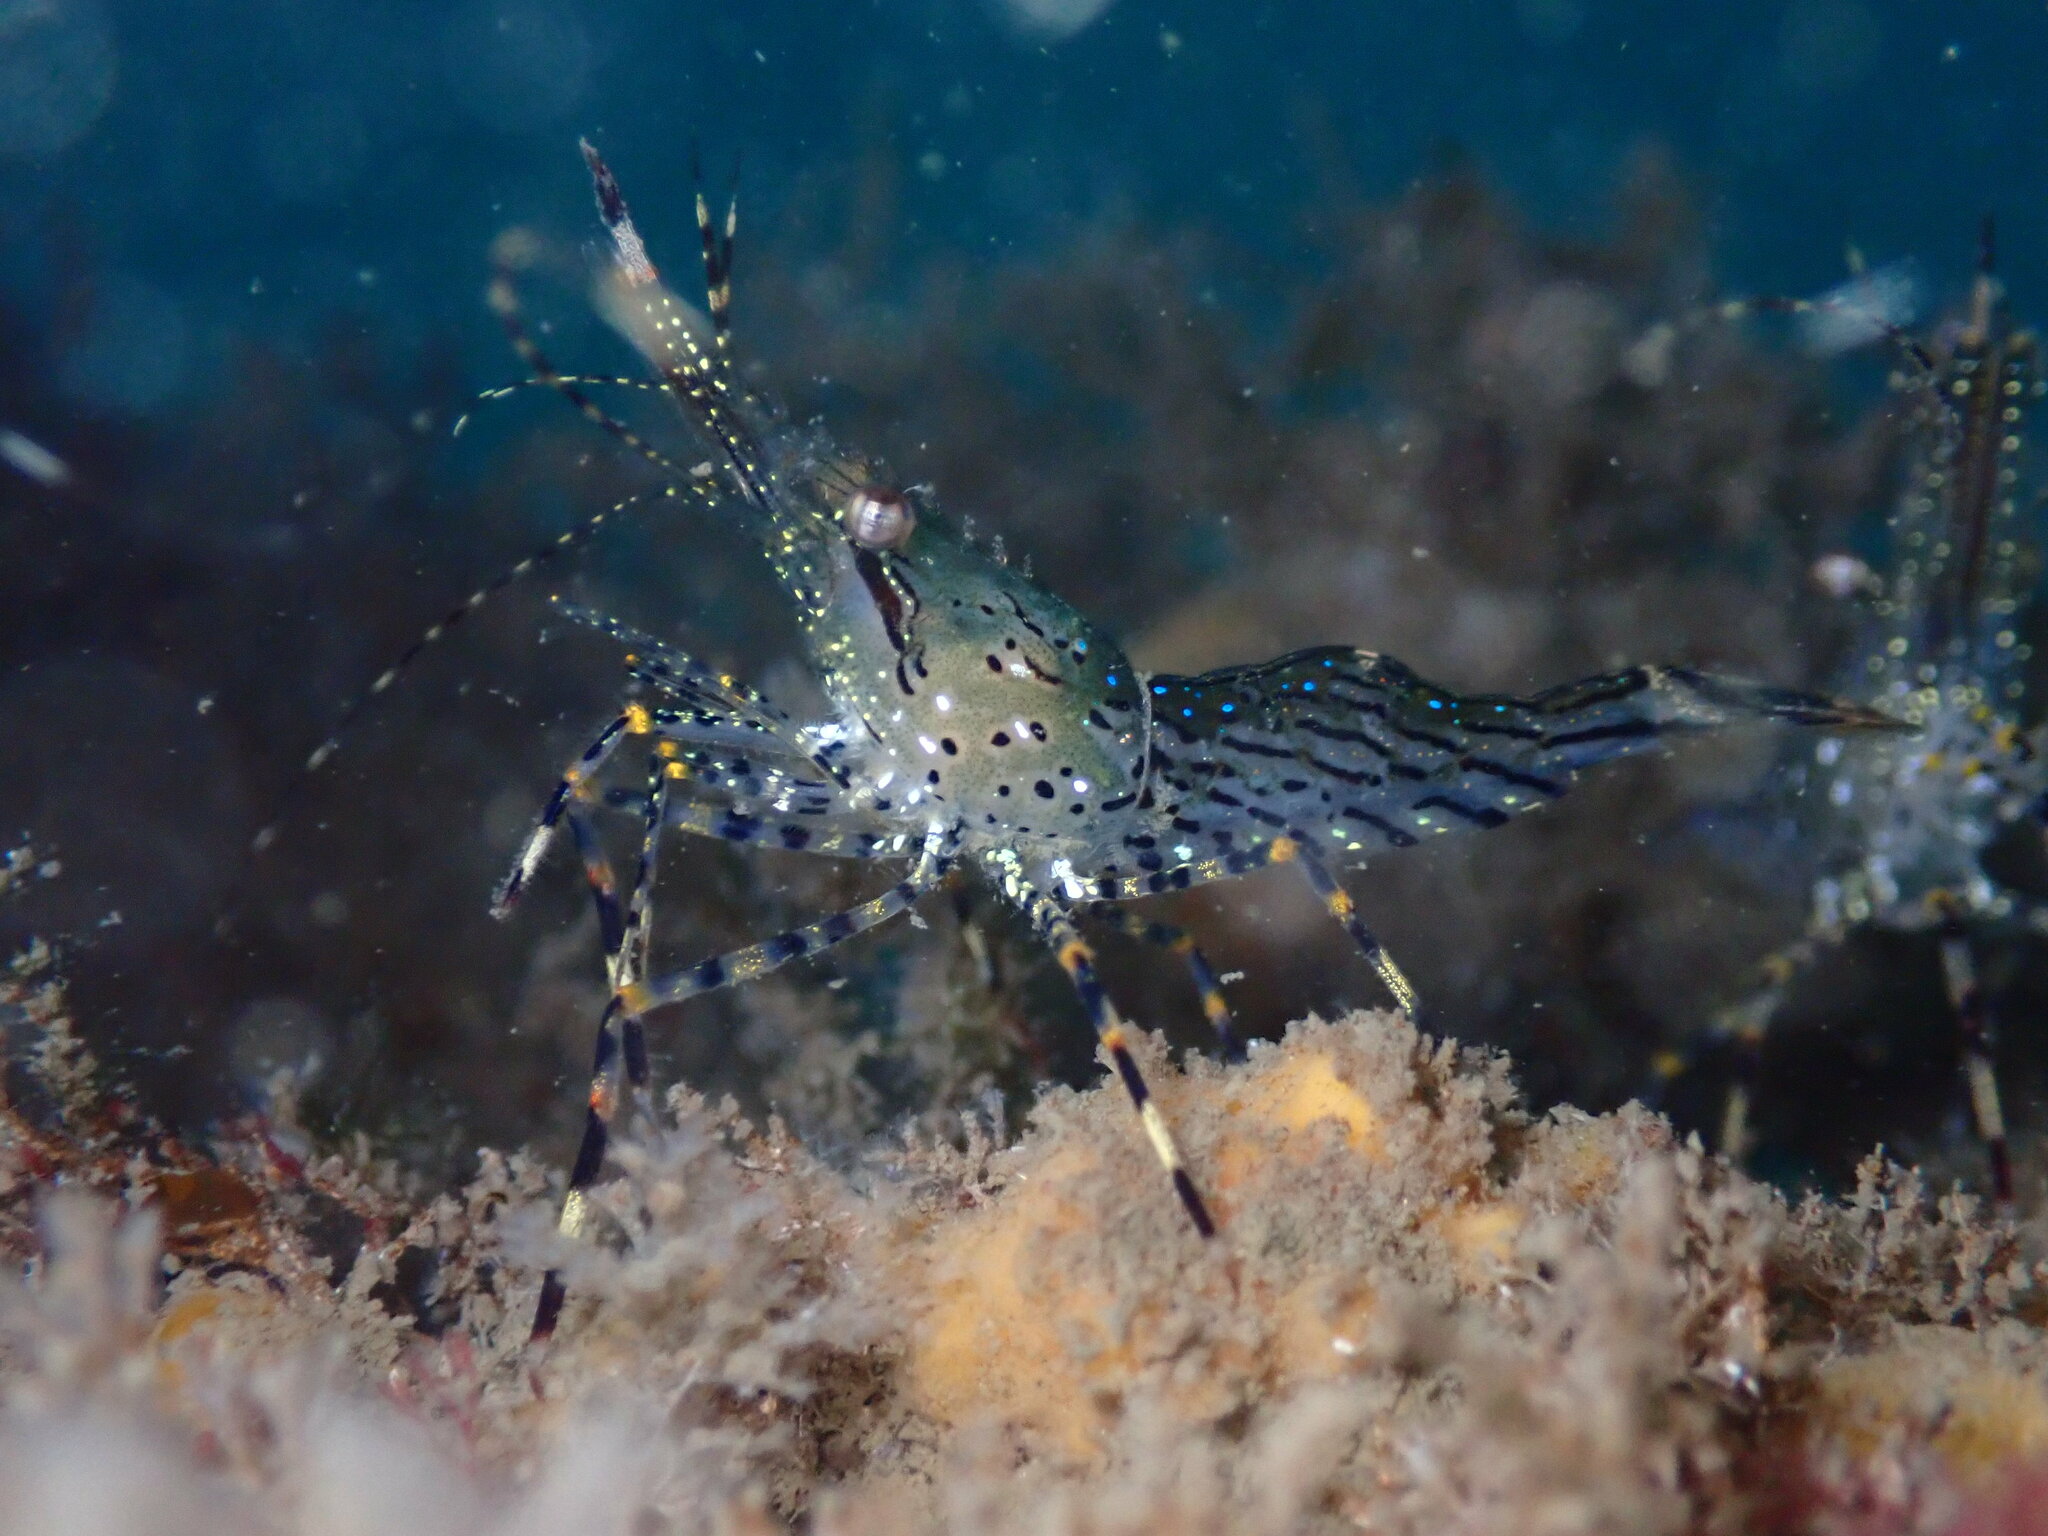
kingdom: Animalia
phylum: Arthropoda
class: Malacostraca
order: Decapoda
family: Pandalidae
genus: Pandalus
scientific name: Pandalus danae
